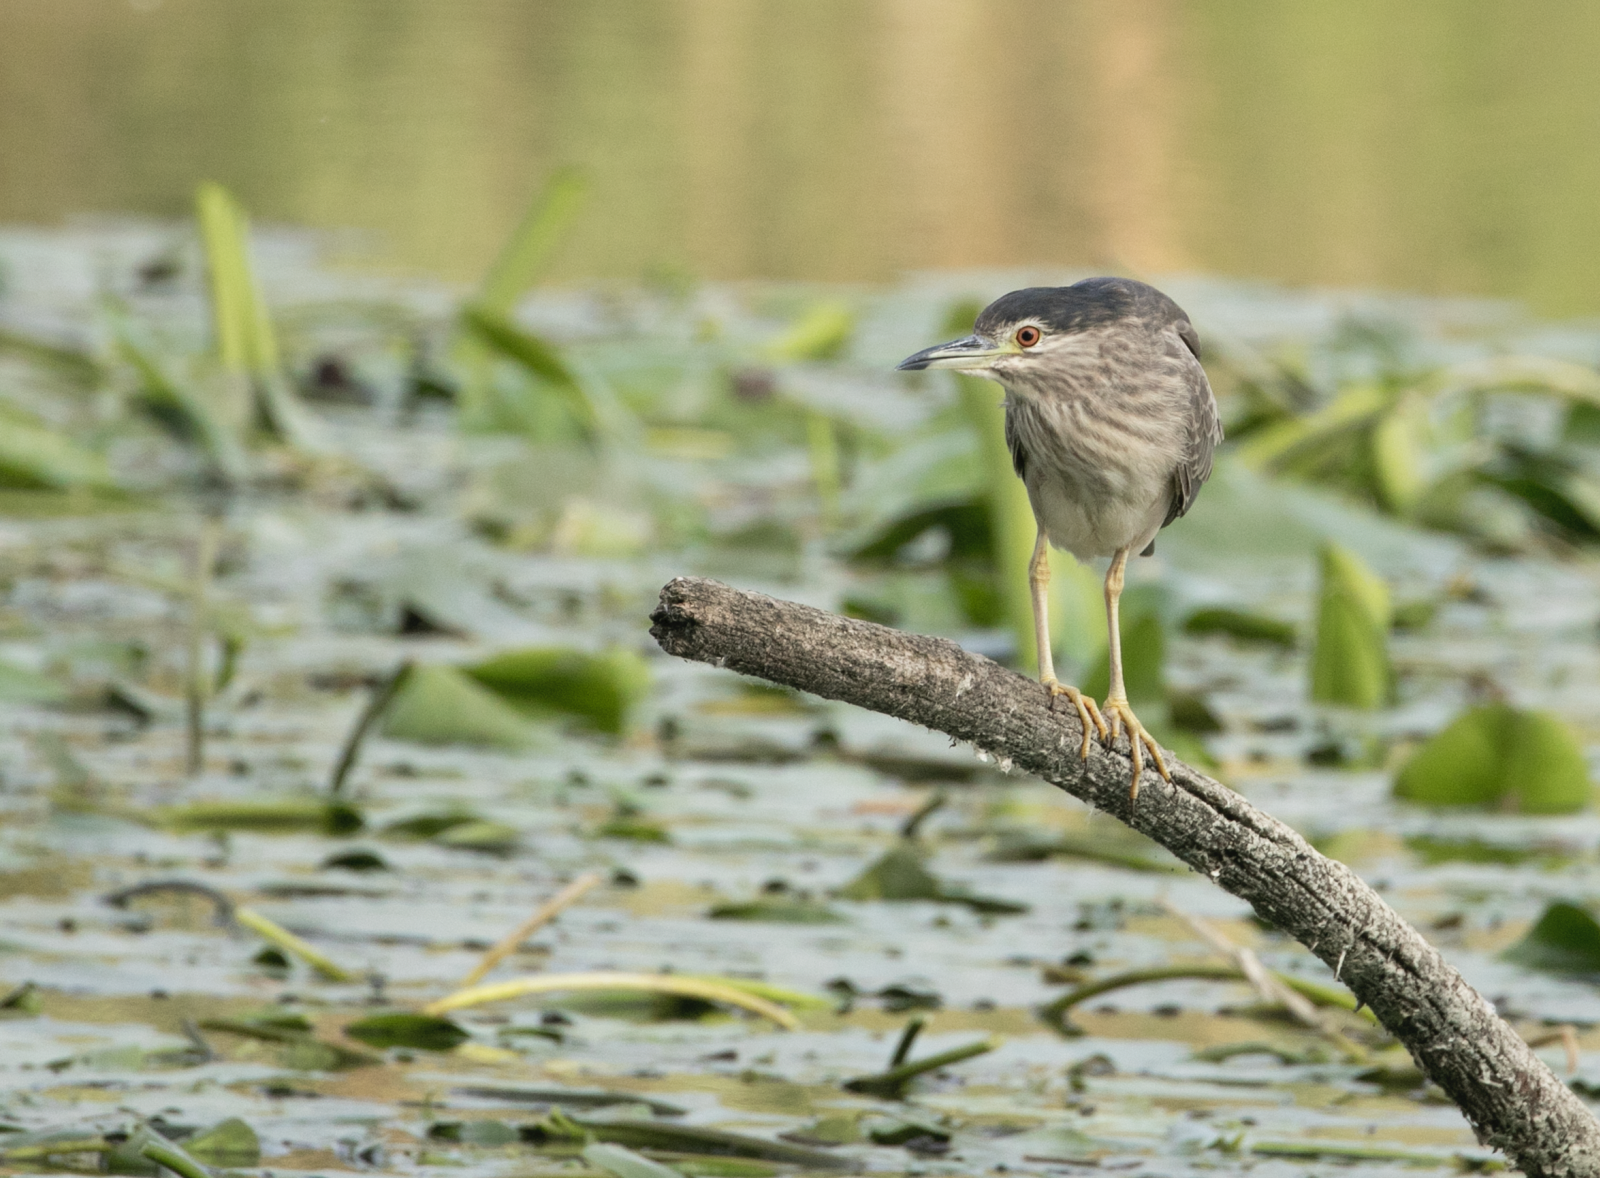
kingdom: Animalia
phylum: Chordata
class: Aves
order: Pelecaniformes
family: Ardeidae
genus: Nycticorax
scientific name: Nycticorax nycticorax
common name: Black-crowned night heron
